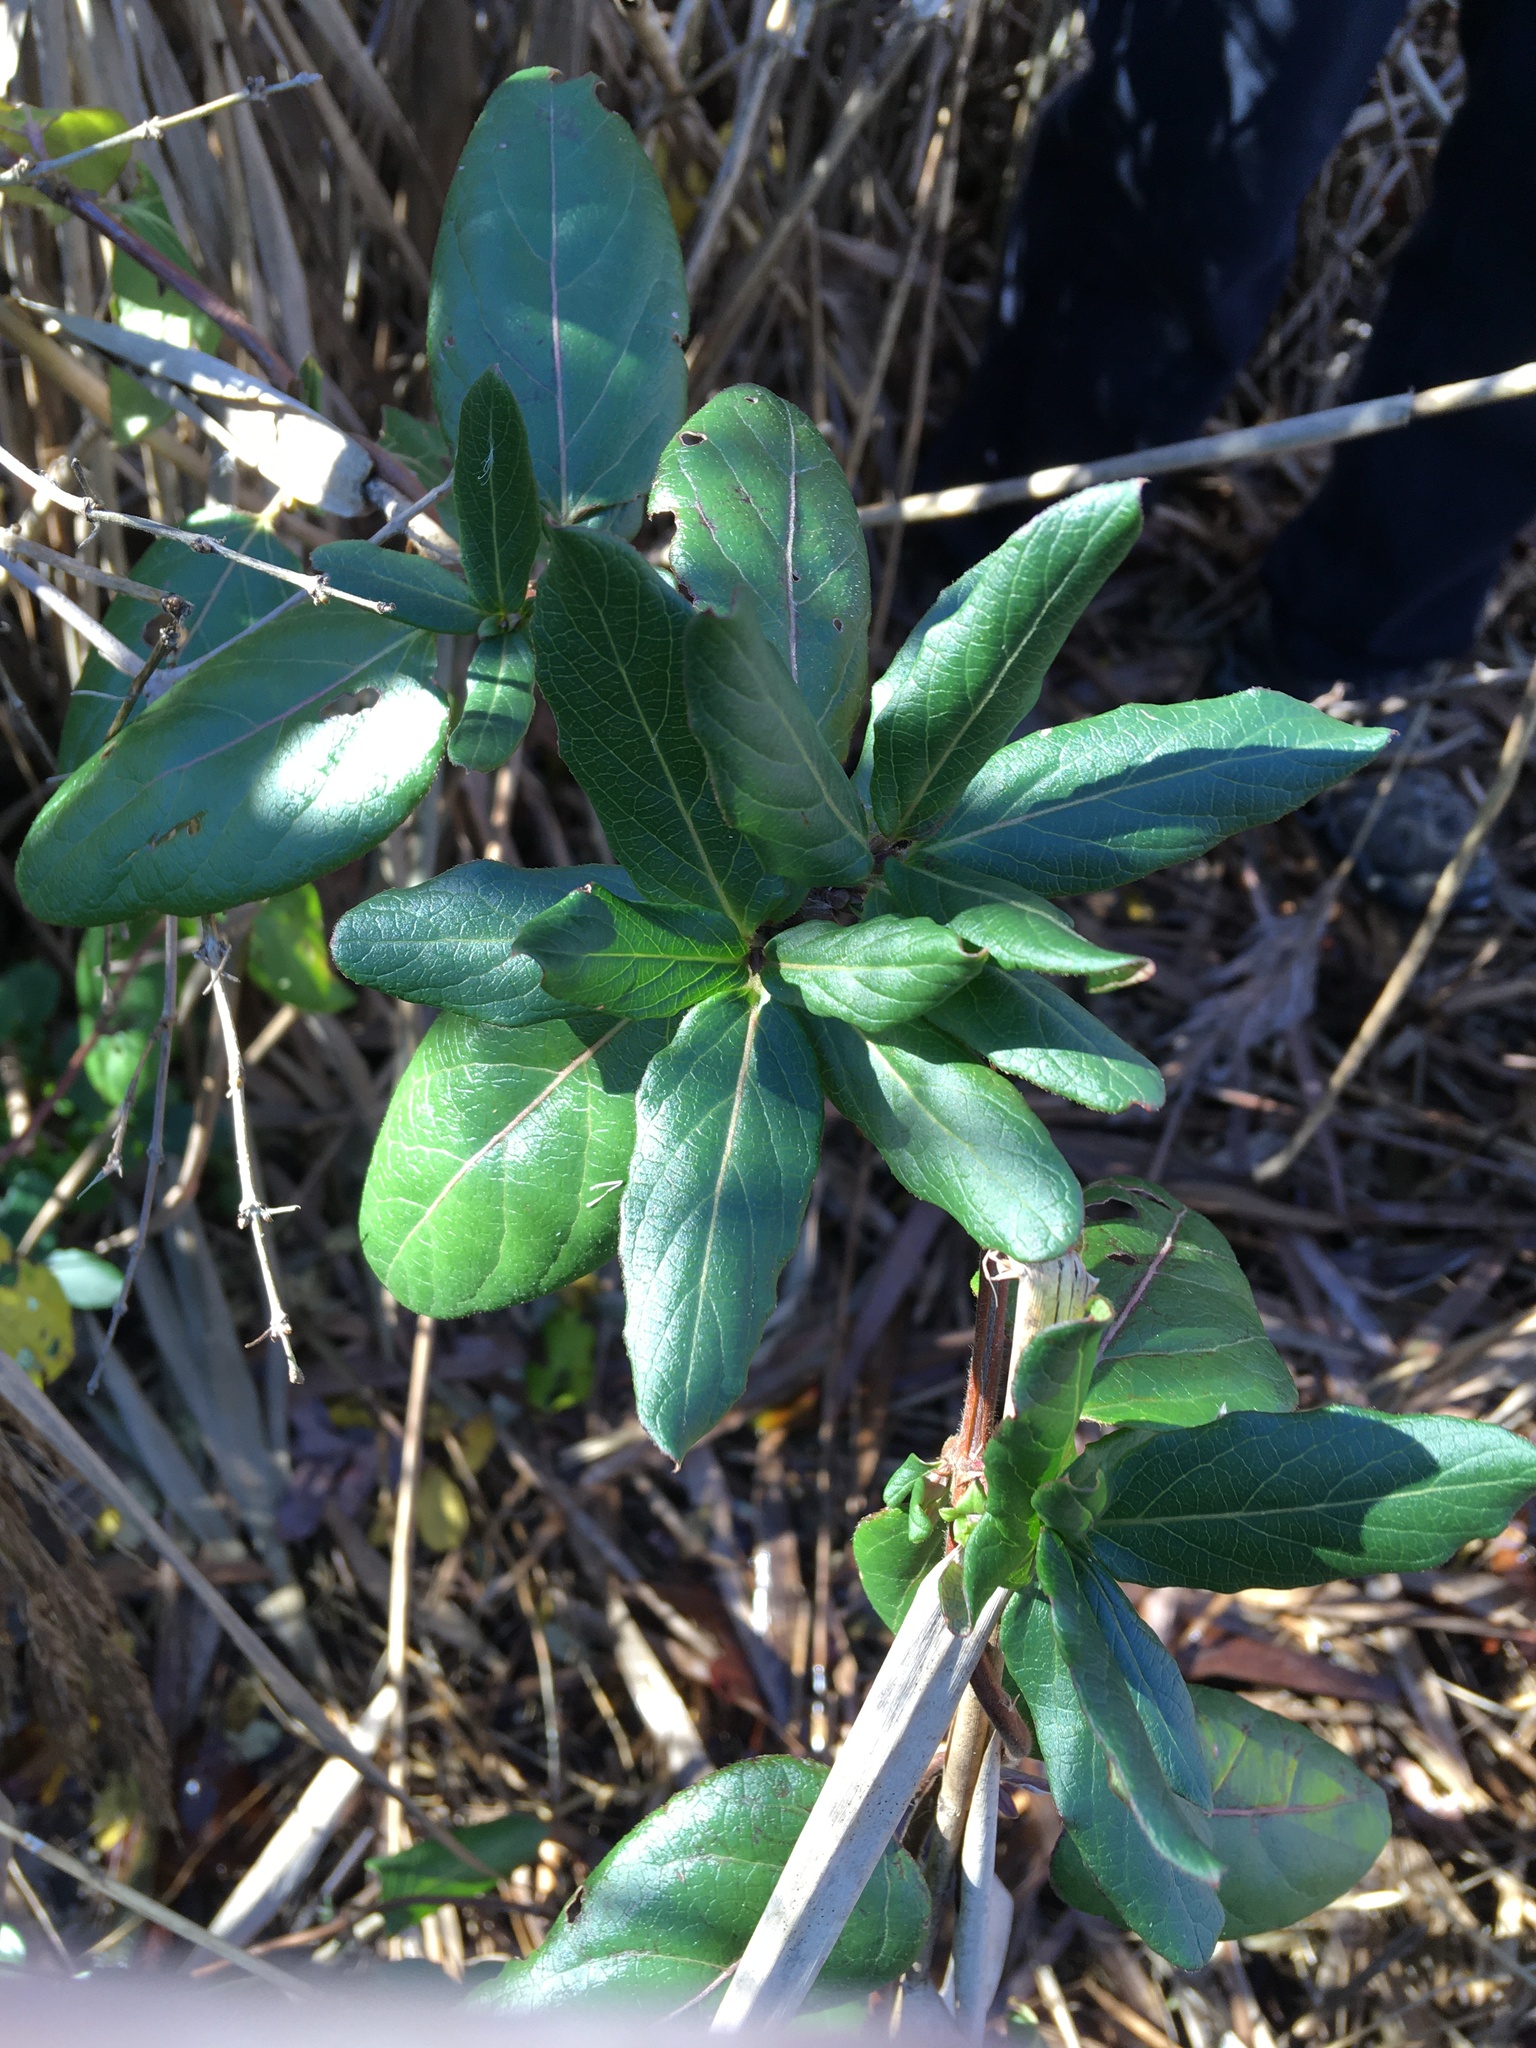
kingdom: Plantae
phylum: Tracheophyta
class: Magnoliopsida
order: Dipsacales
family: Caprifoliaceae
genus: Lonicera
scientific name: Lonicera japonica
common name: Japanese honeysuckle
